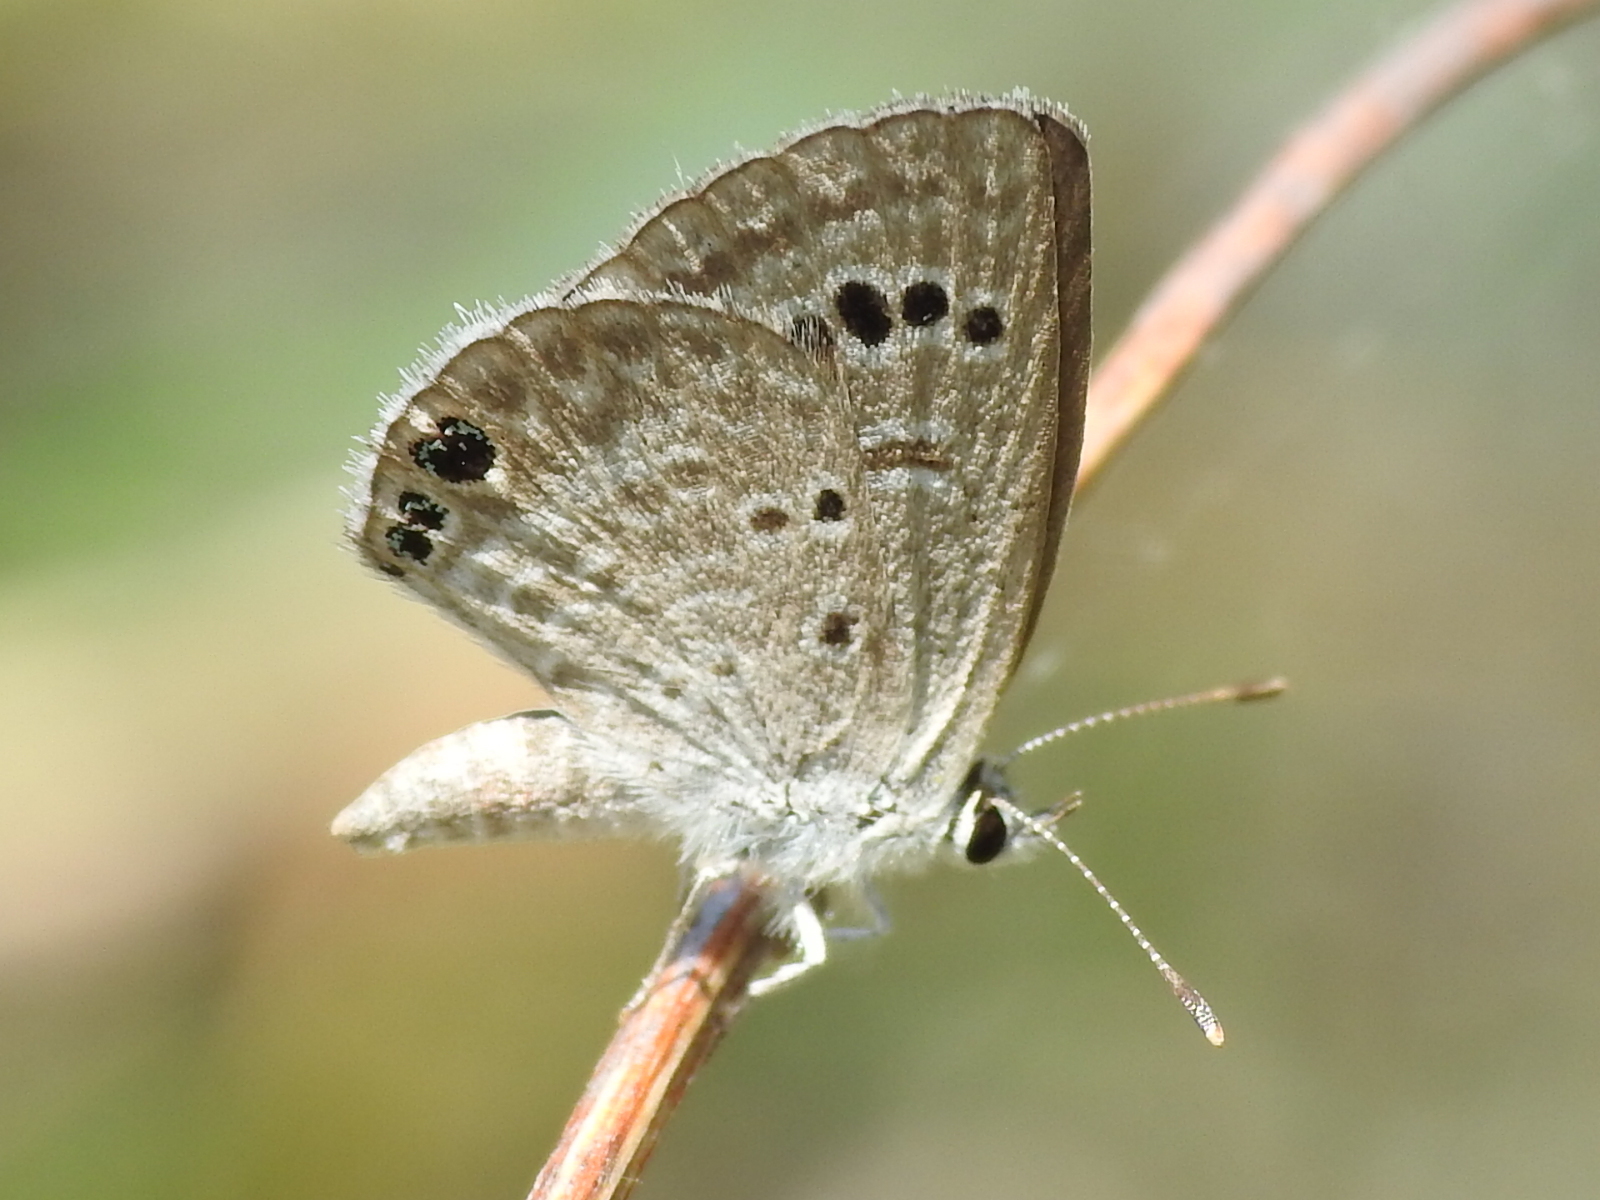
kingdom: Animalia
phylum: Arthropoda
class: Insecta
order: Lepidoptera
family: Lycaenidae
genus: Echinargus
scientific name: Echinargus isola
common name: Reakirt's blue
